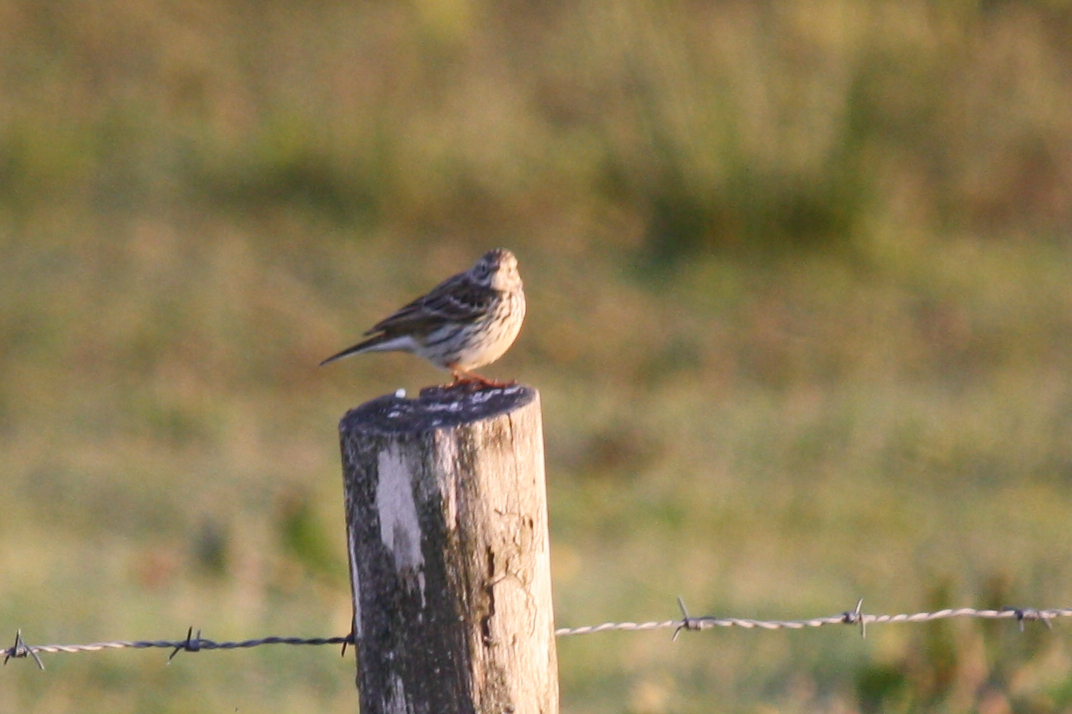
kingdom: Animalia
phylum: Chordata
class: Aves
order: Passeriformes
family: Motacillidae
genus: Anthus
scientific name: Anthus pratensis
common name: Meadow pipit
